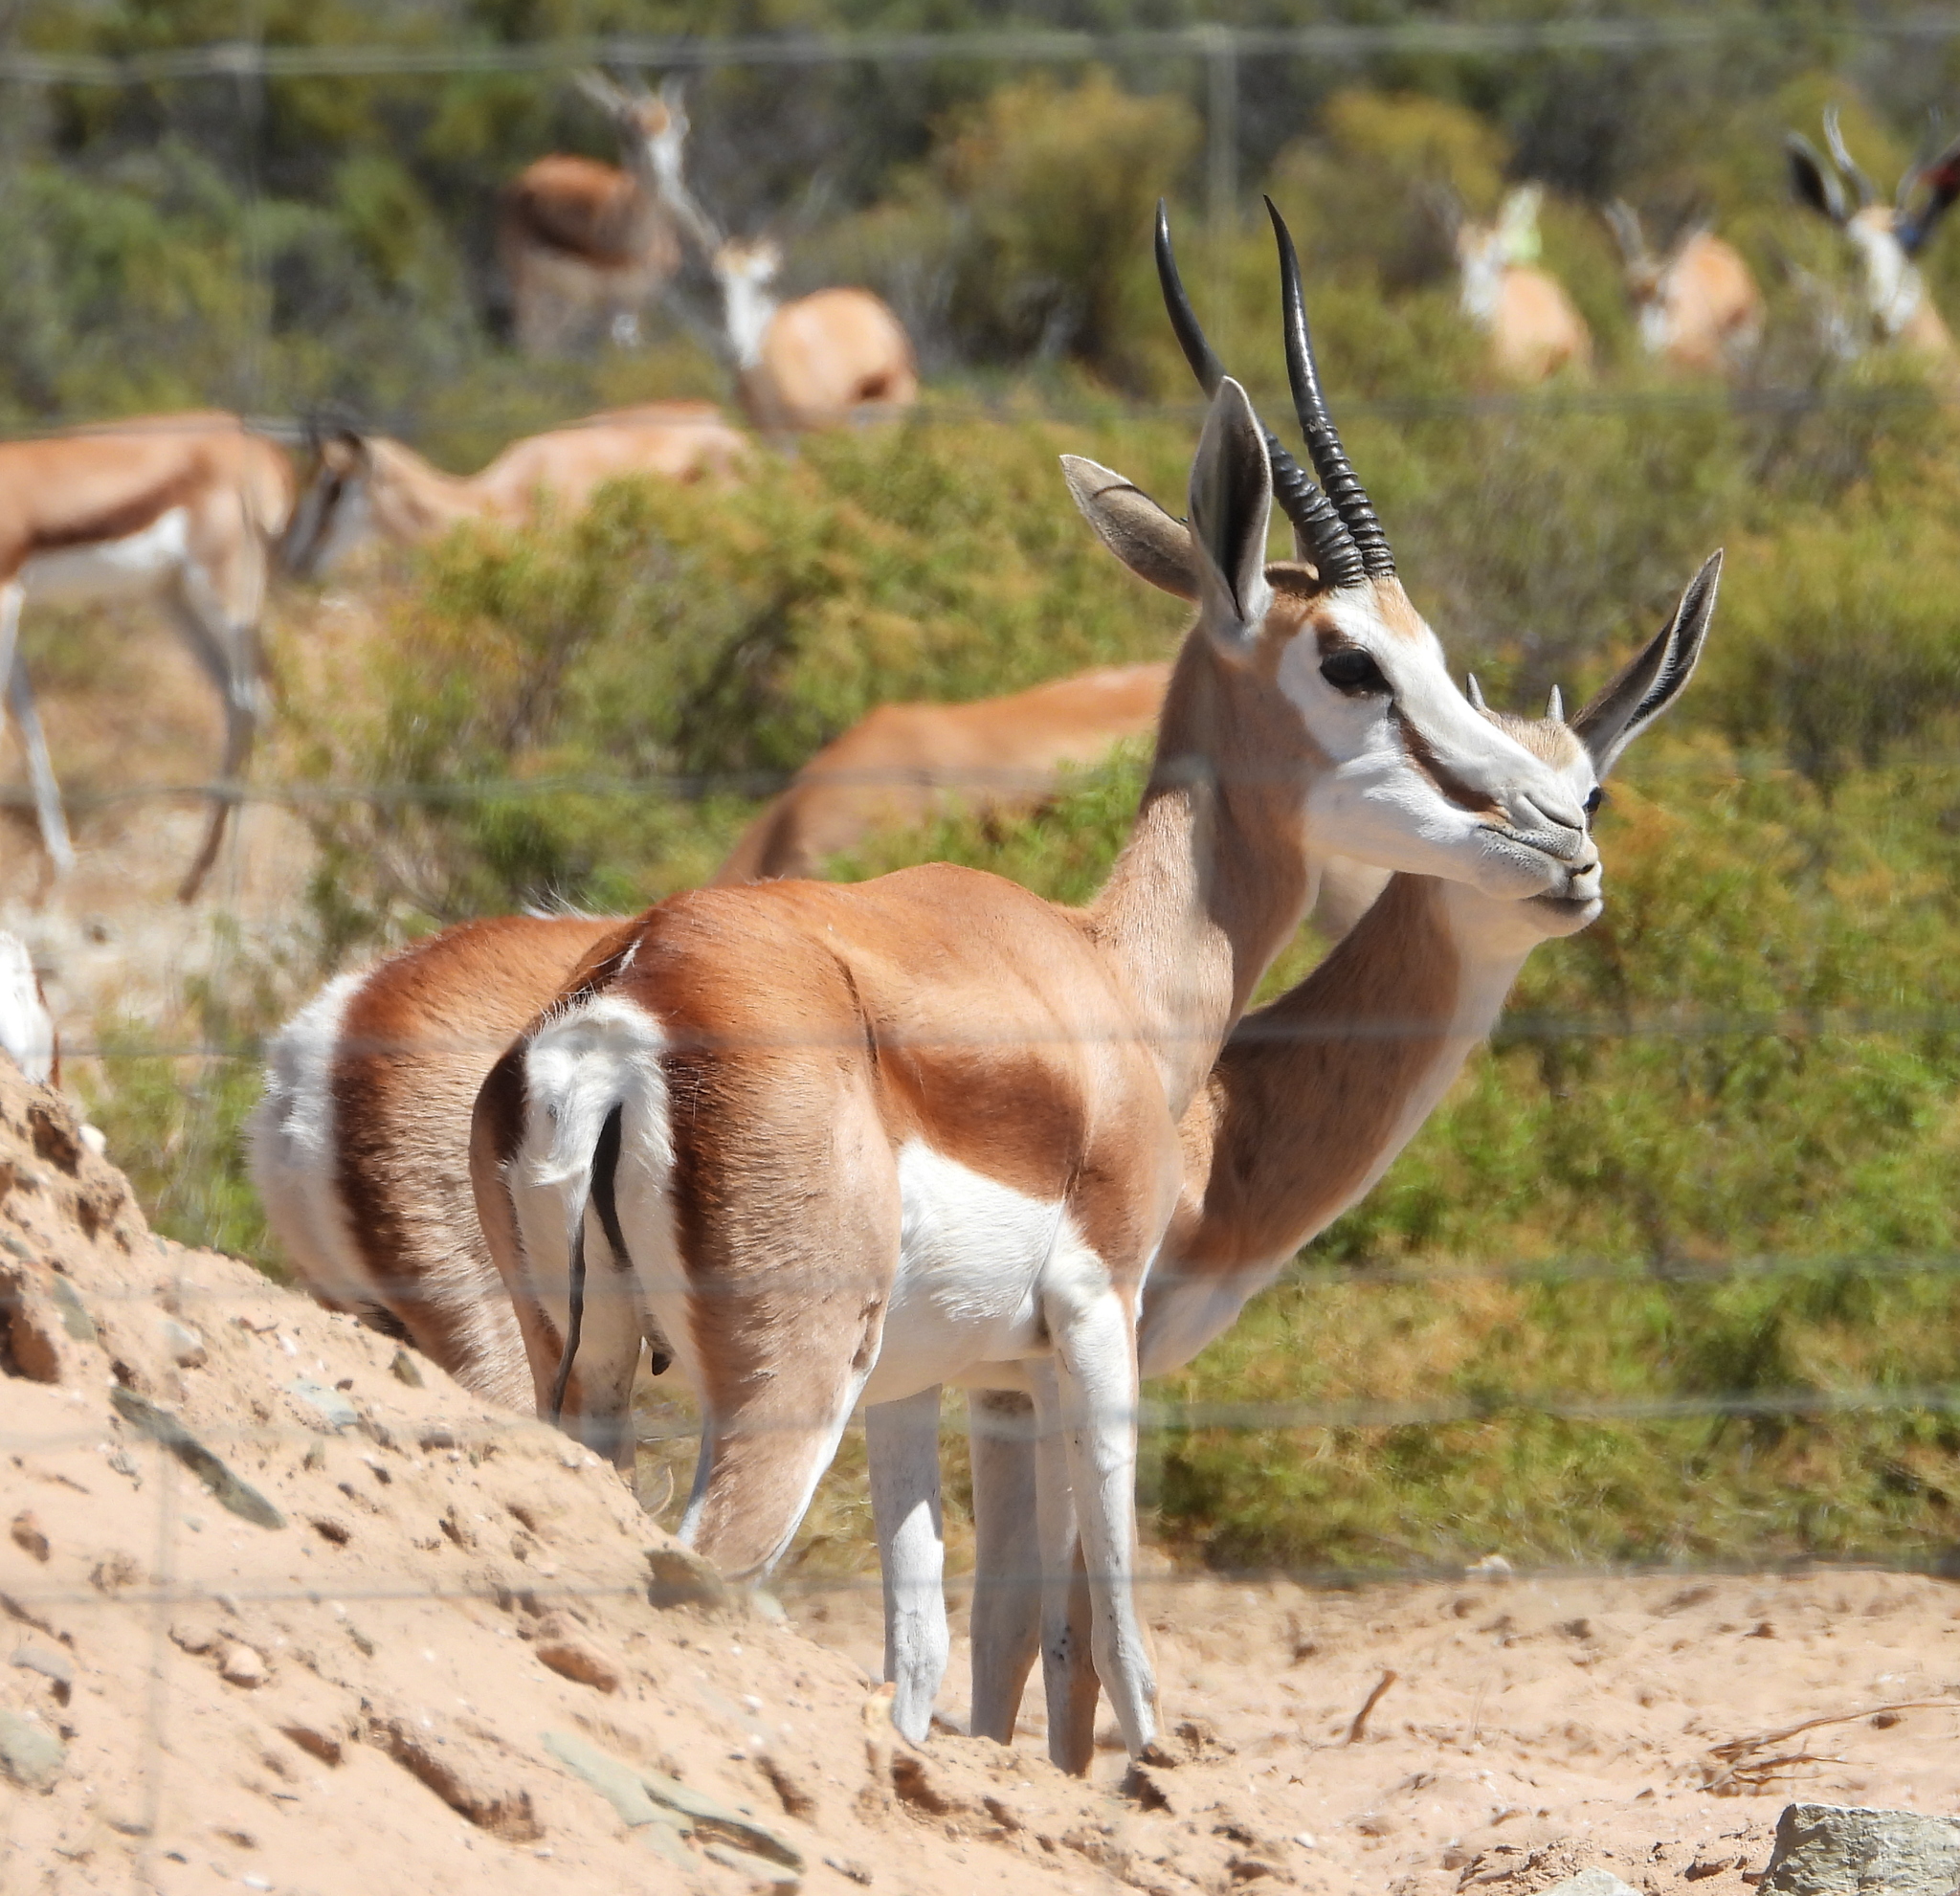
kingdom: Animalia
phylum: Chordata
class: Mammalia
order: Artiodactyla
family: Bovidae
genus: Antidorcas
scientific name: Antidorcas marsupialis
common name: Springbok
